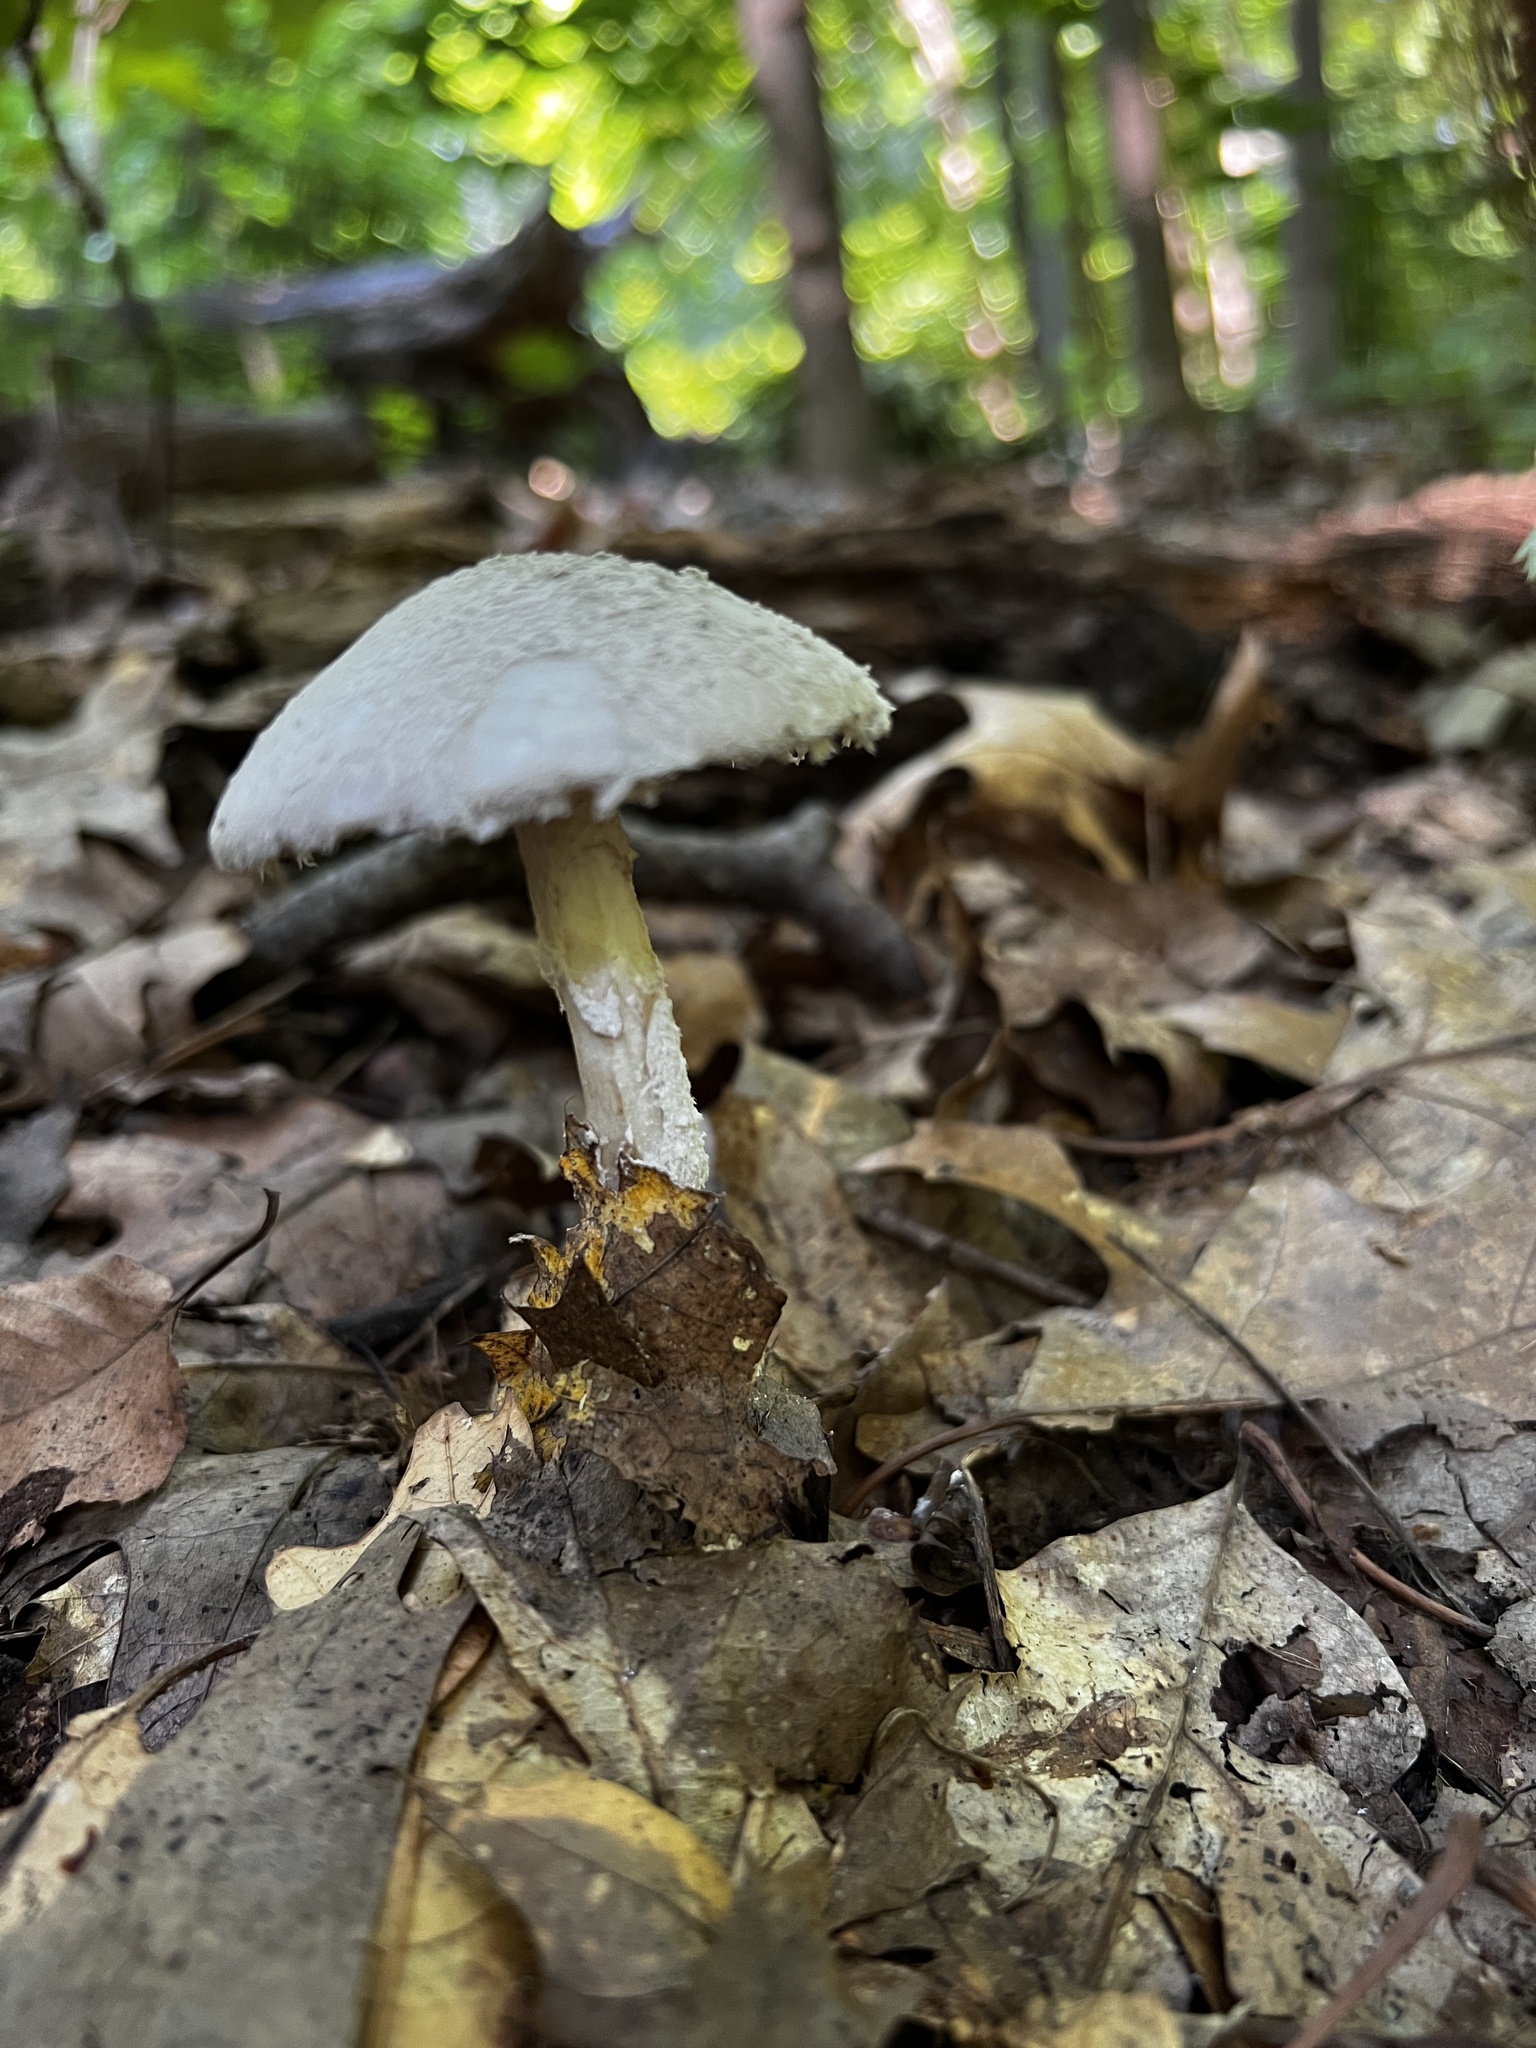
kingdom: Fungi
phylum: Basidiomycota
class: Agaricomycetes
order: Agaricales
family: Amanitaceae
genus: Amanita
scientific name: Amanita chlorinosma
